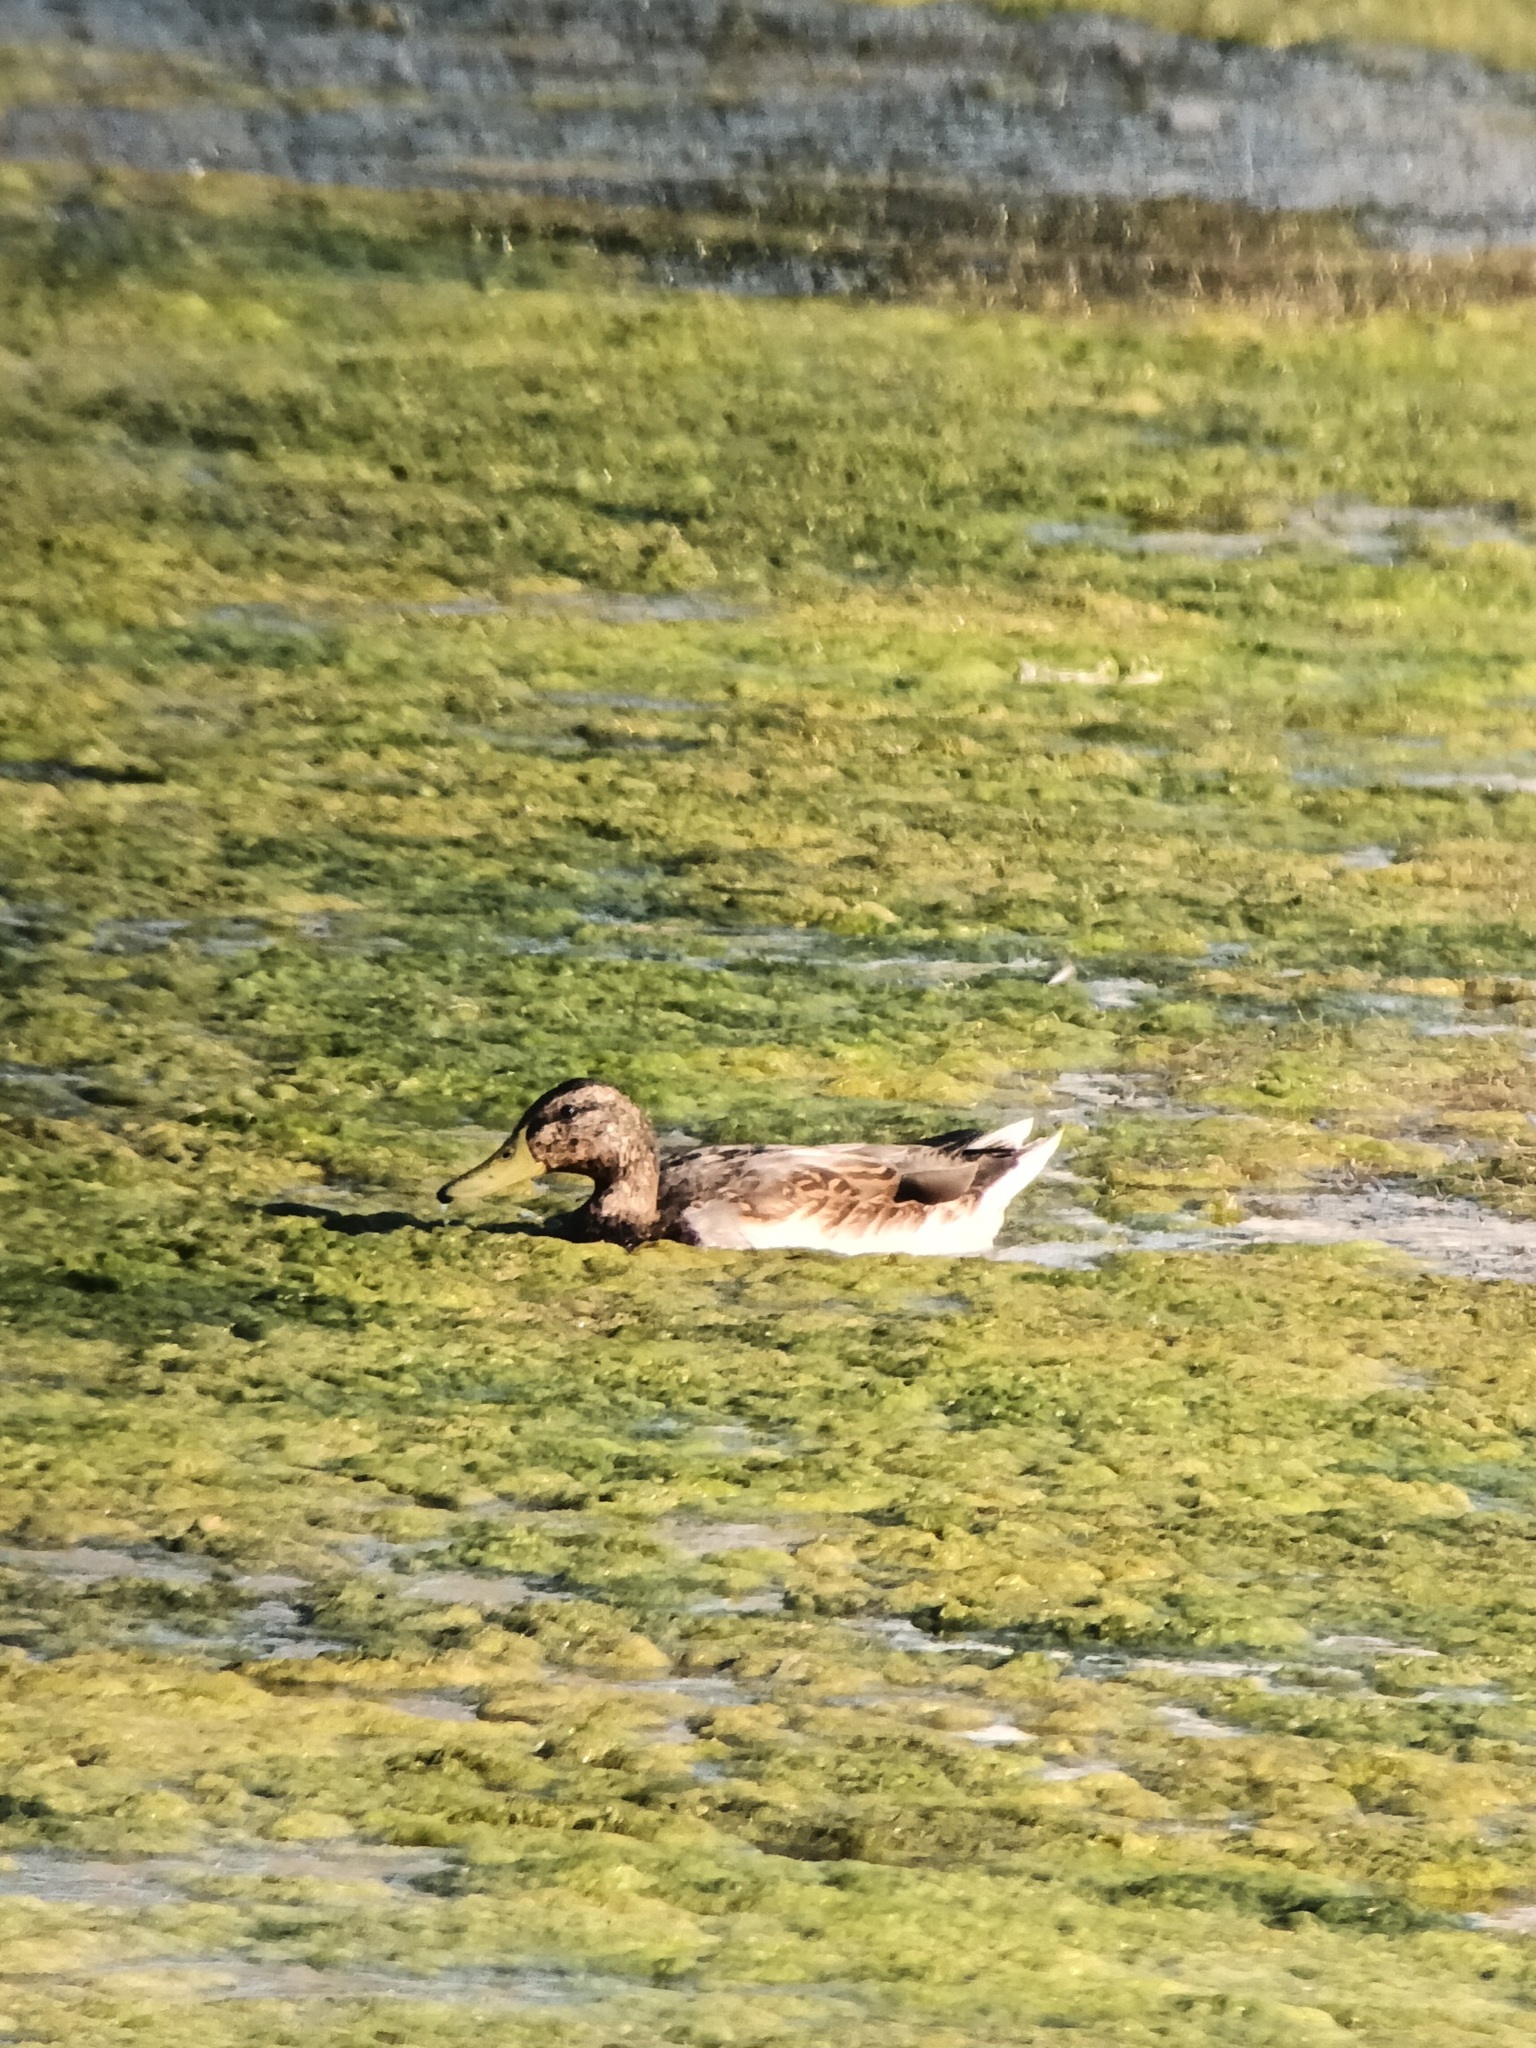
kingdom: Animalia
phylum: Chordata
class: Aves
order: Anseriformes
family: Anatidae
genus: Anas
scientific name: Anas platyrhynchos
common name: Mallard
